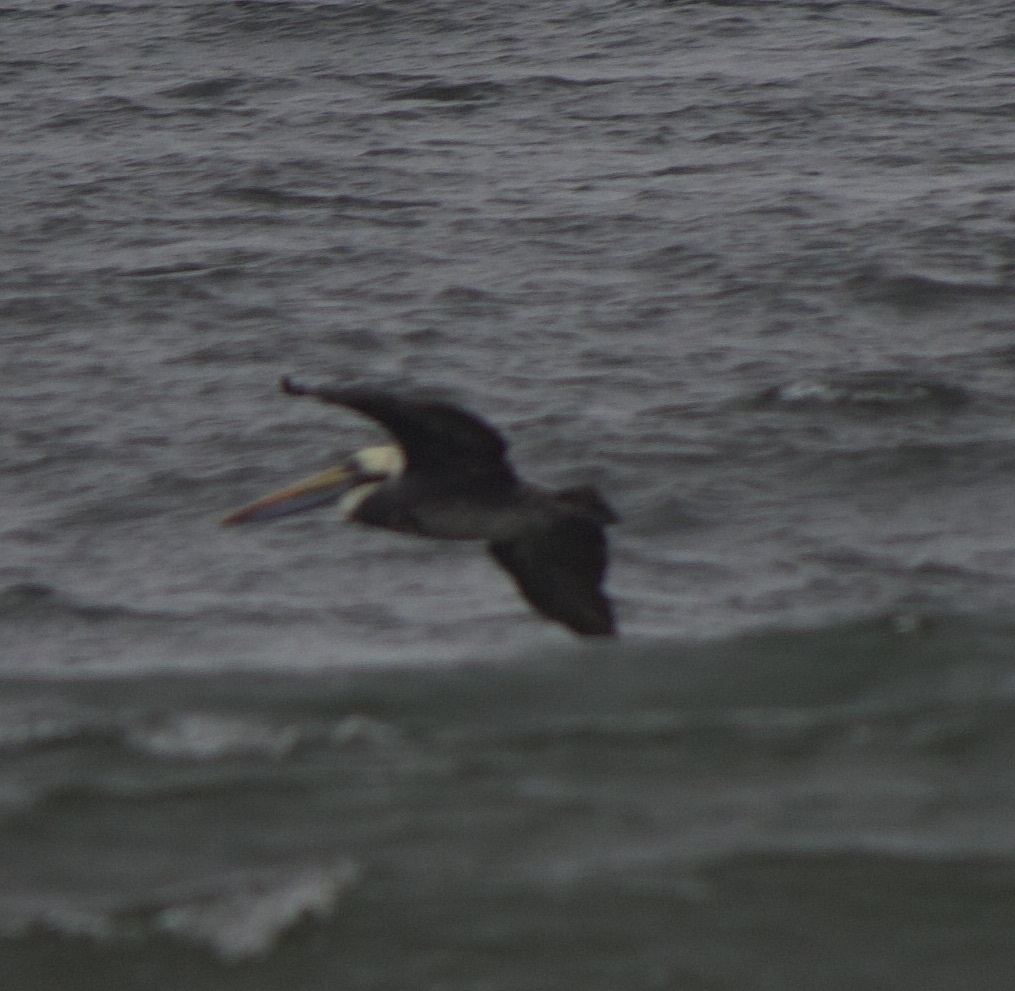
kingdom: Animalia
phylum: Chordata
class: Aves
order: Pelecaniformes
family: Pelecanidae
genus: Pelecanus
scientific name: Pelecanus thagus
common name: Peruvian pelican
